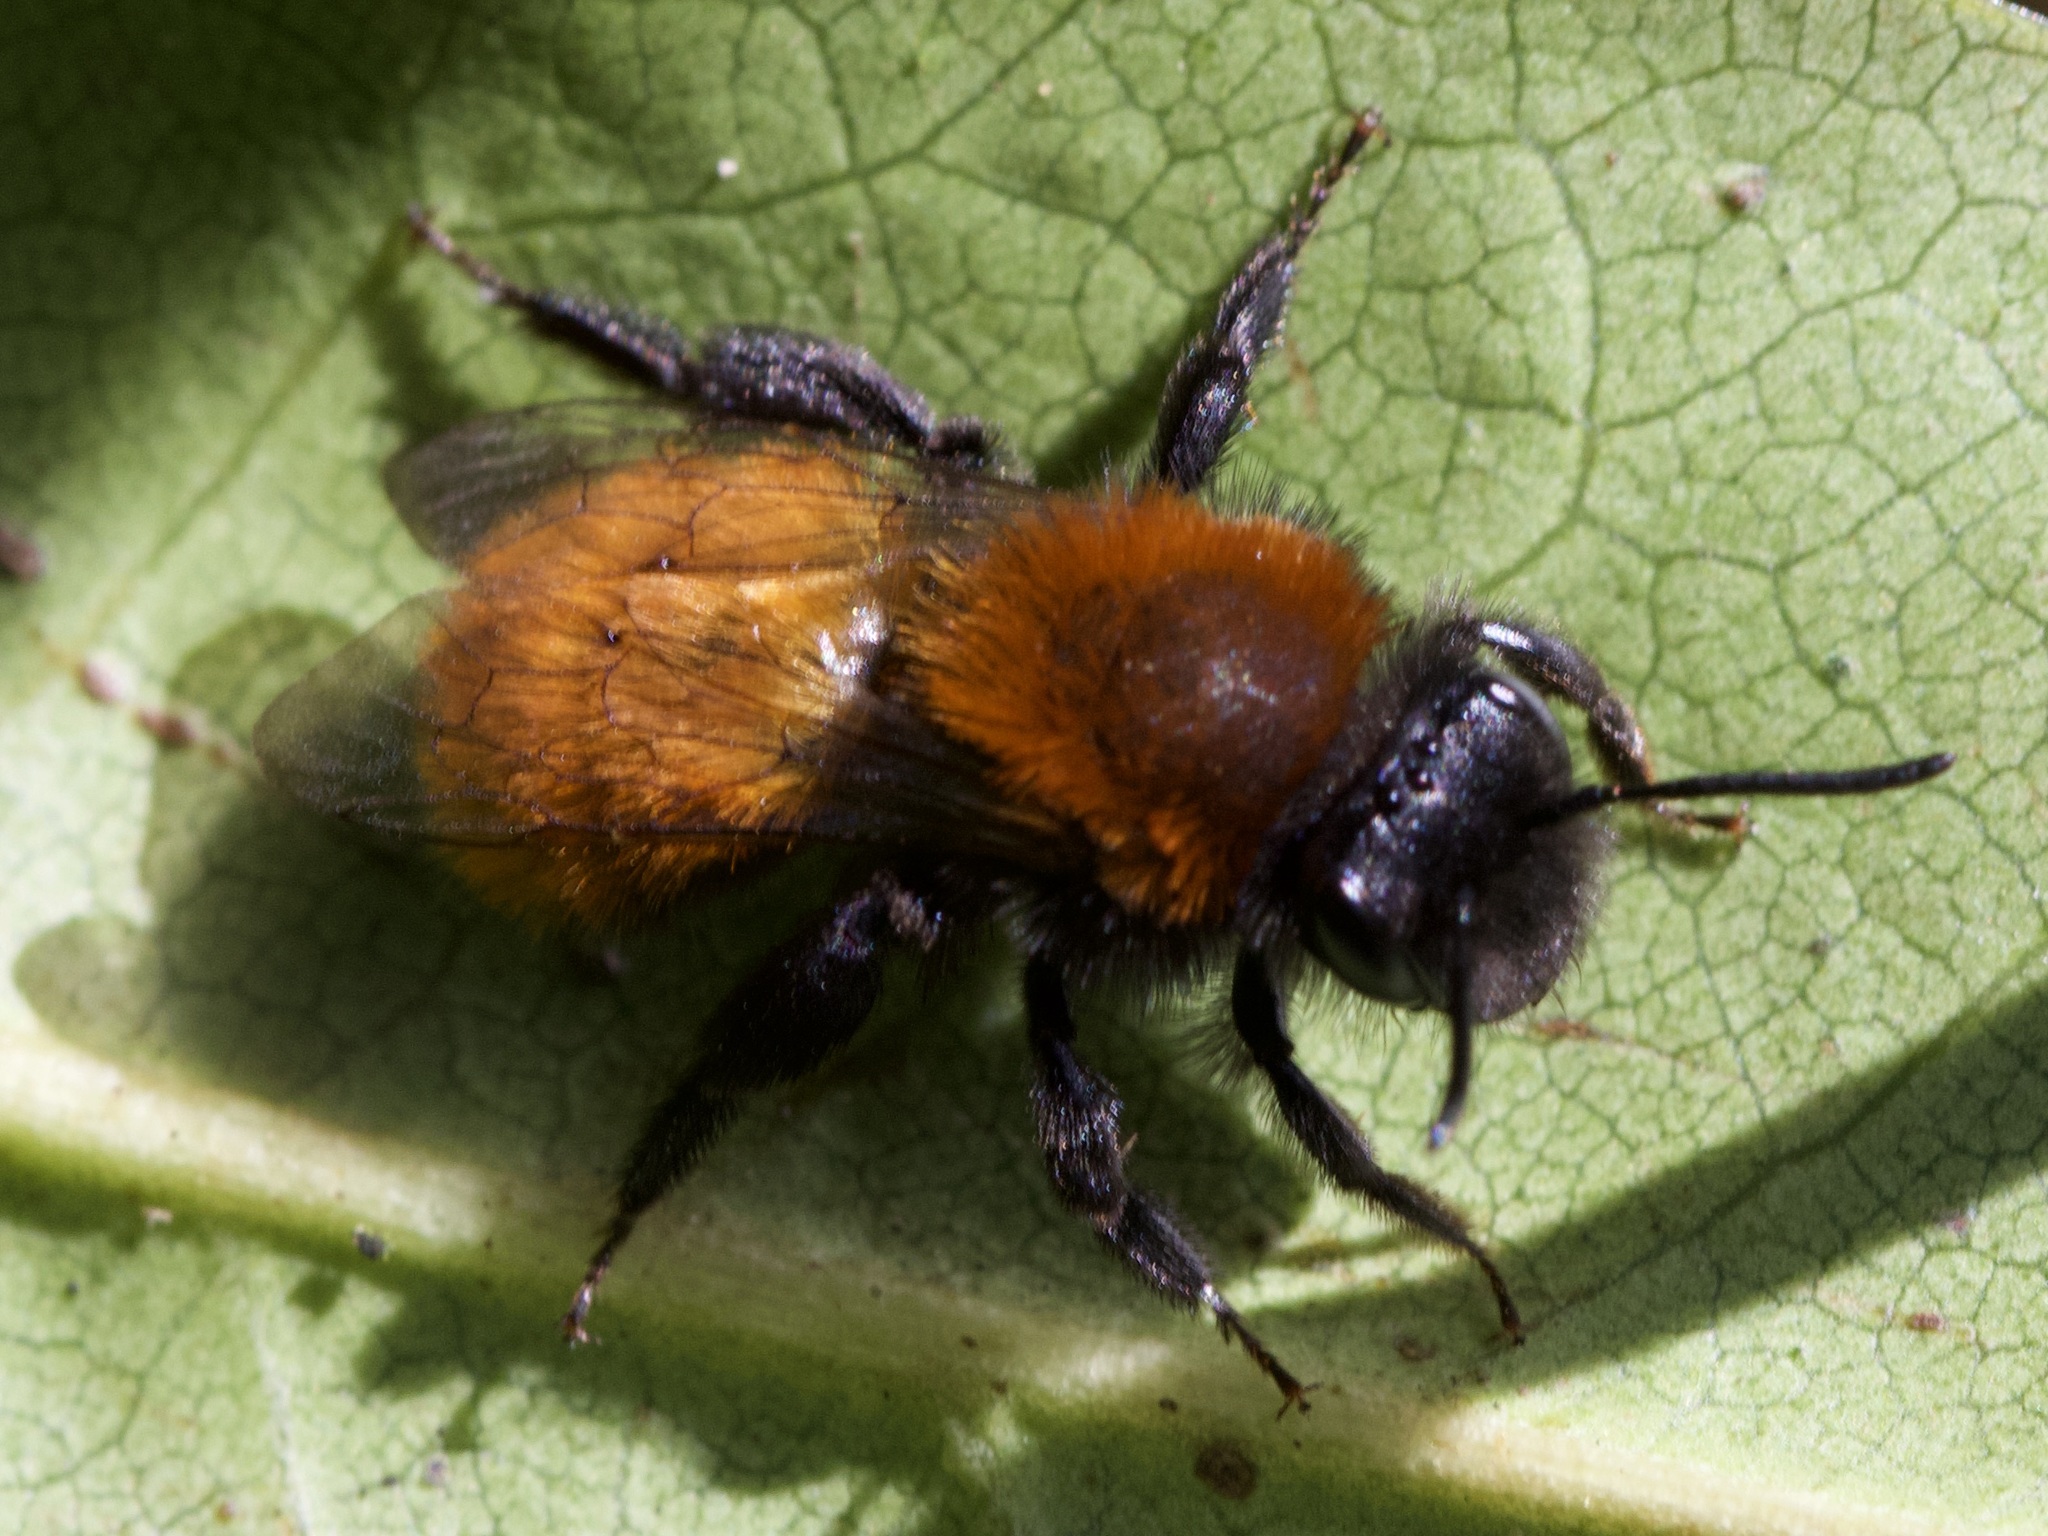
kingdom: Animalia
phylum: Arthropoda
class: Insecta
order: Hymenoptera
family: Andrenidae
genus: Andrena
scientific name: Andrena fulva
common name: Tawny mining bee
